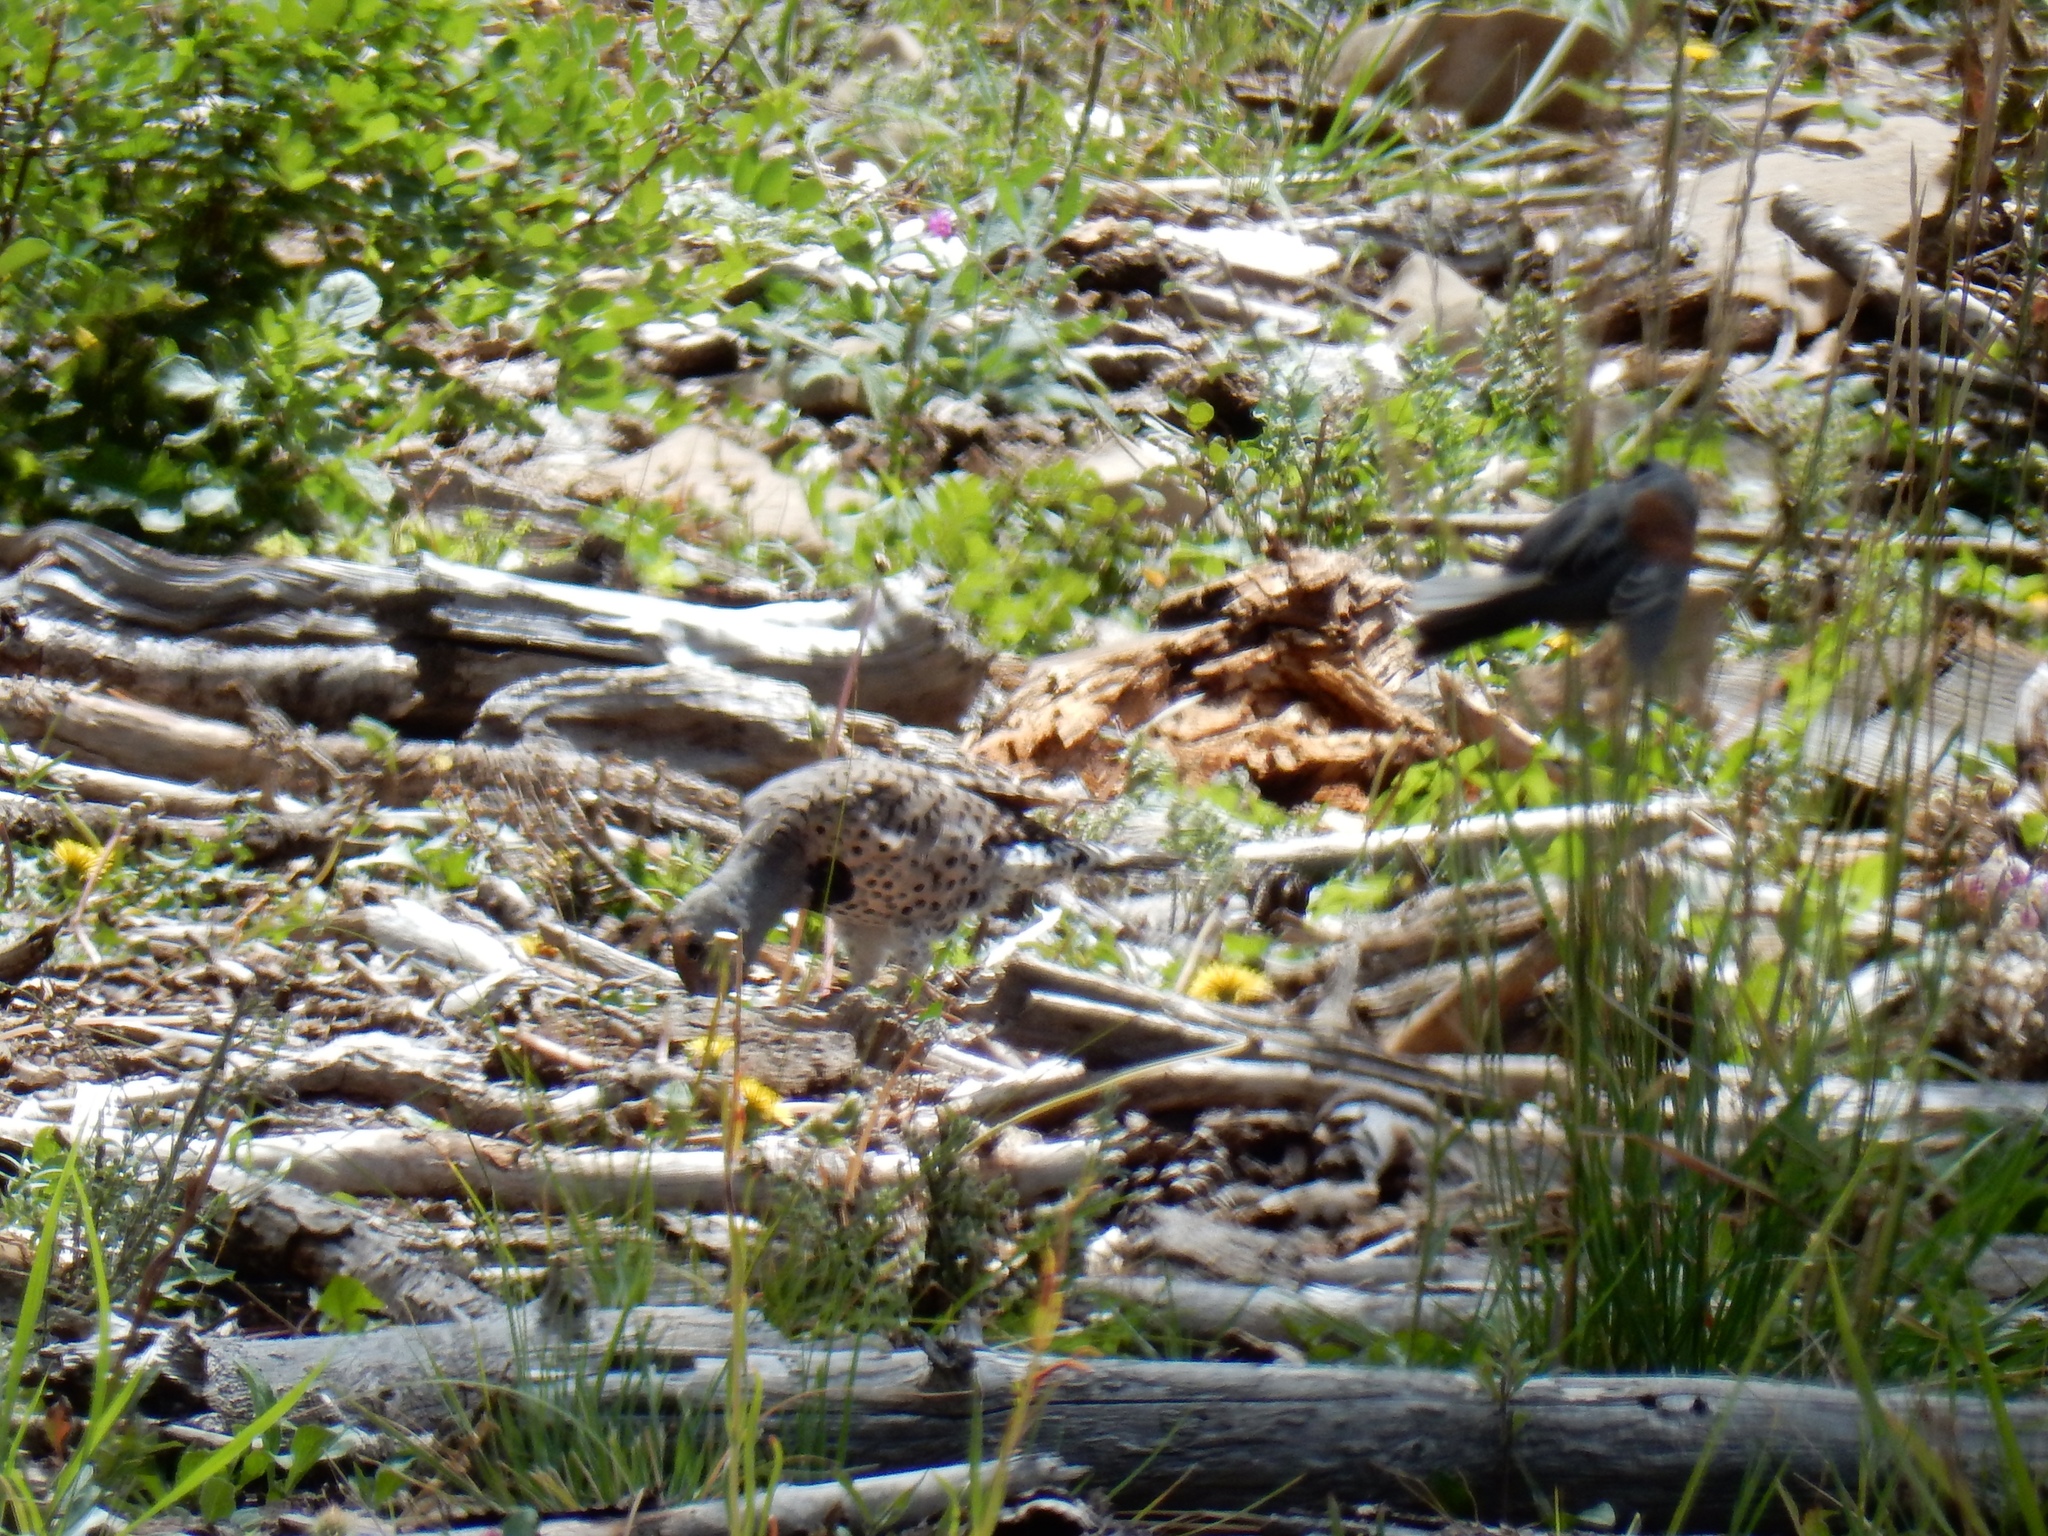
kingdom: Animalia
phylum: Chordata
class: Aves
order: Piciformes
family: Picidae
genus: Colaptes
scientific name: Colaptes auratus
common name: Northern flicker
